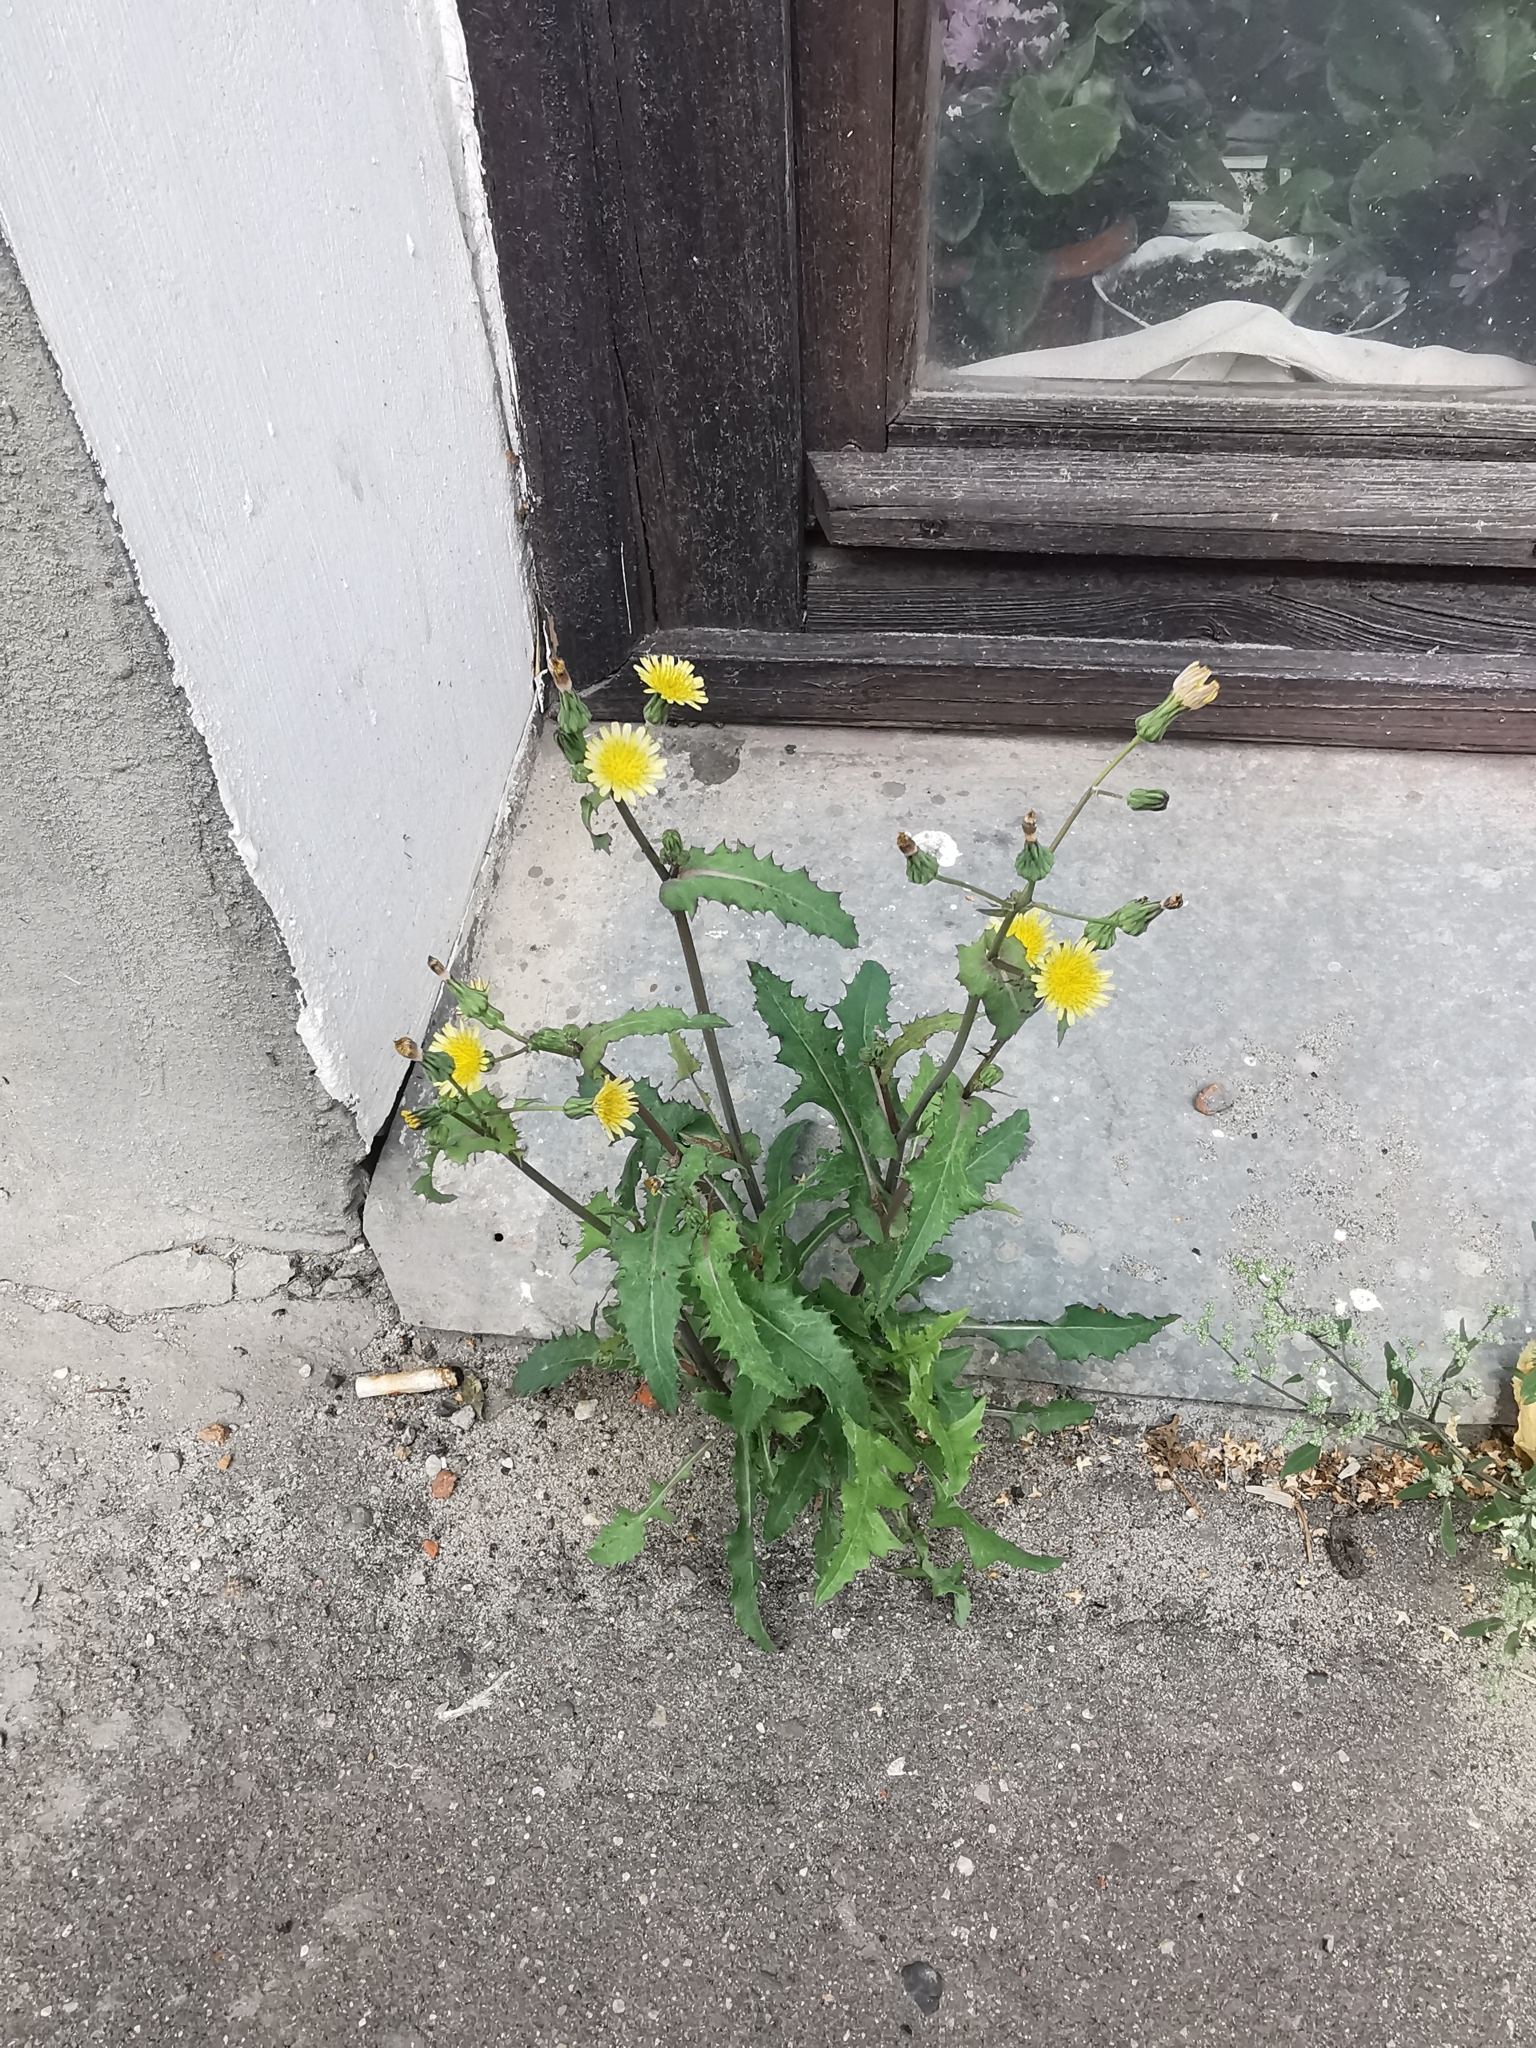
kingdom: Plantae
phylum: Tracheophyta
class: Magnoliopsida
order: Asterales
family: Asteraceae
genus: Sonchus
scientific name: Sonchus oleraceus
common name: Common sowthistle
